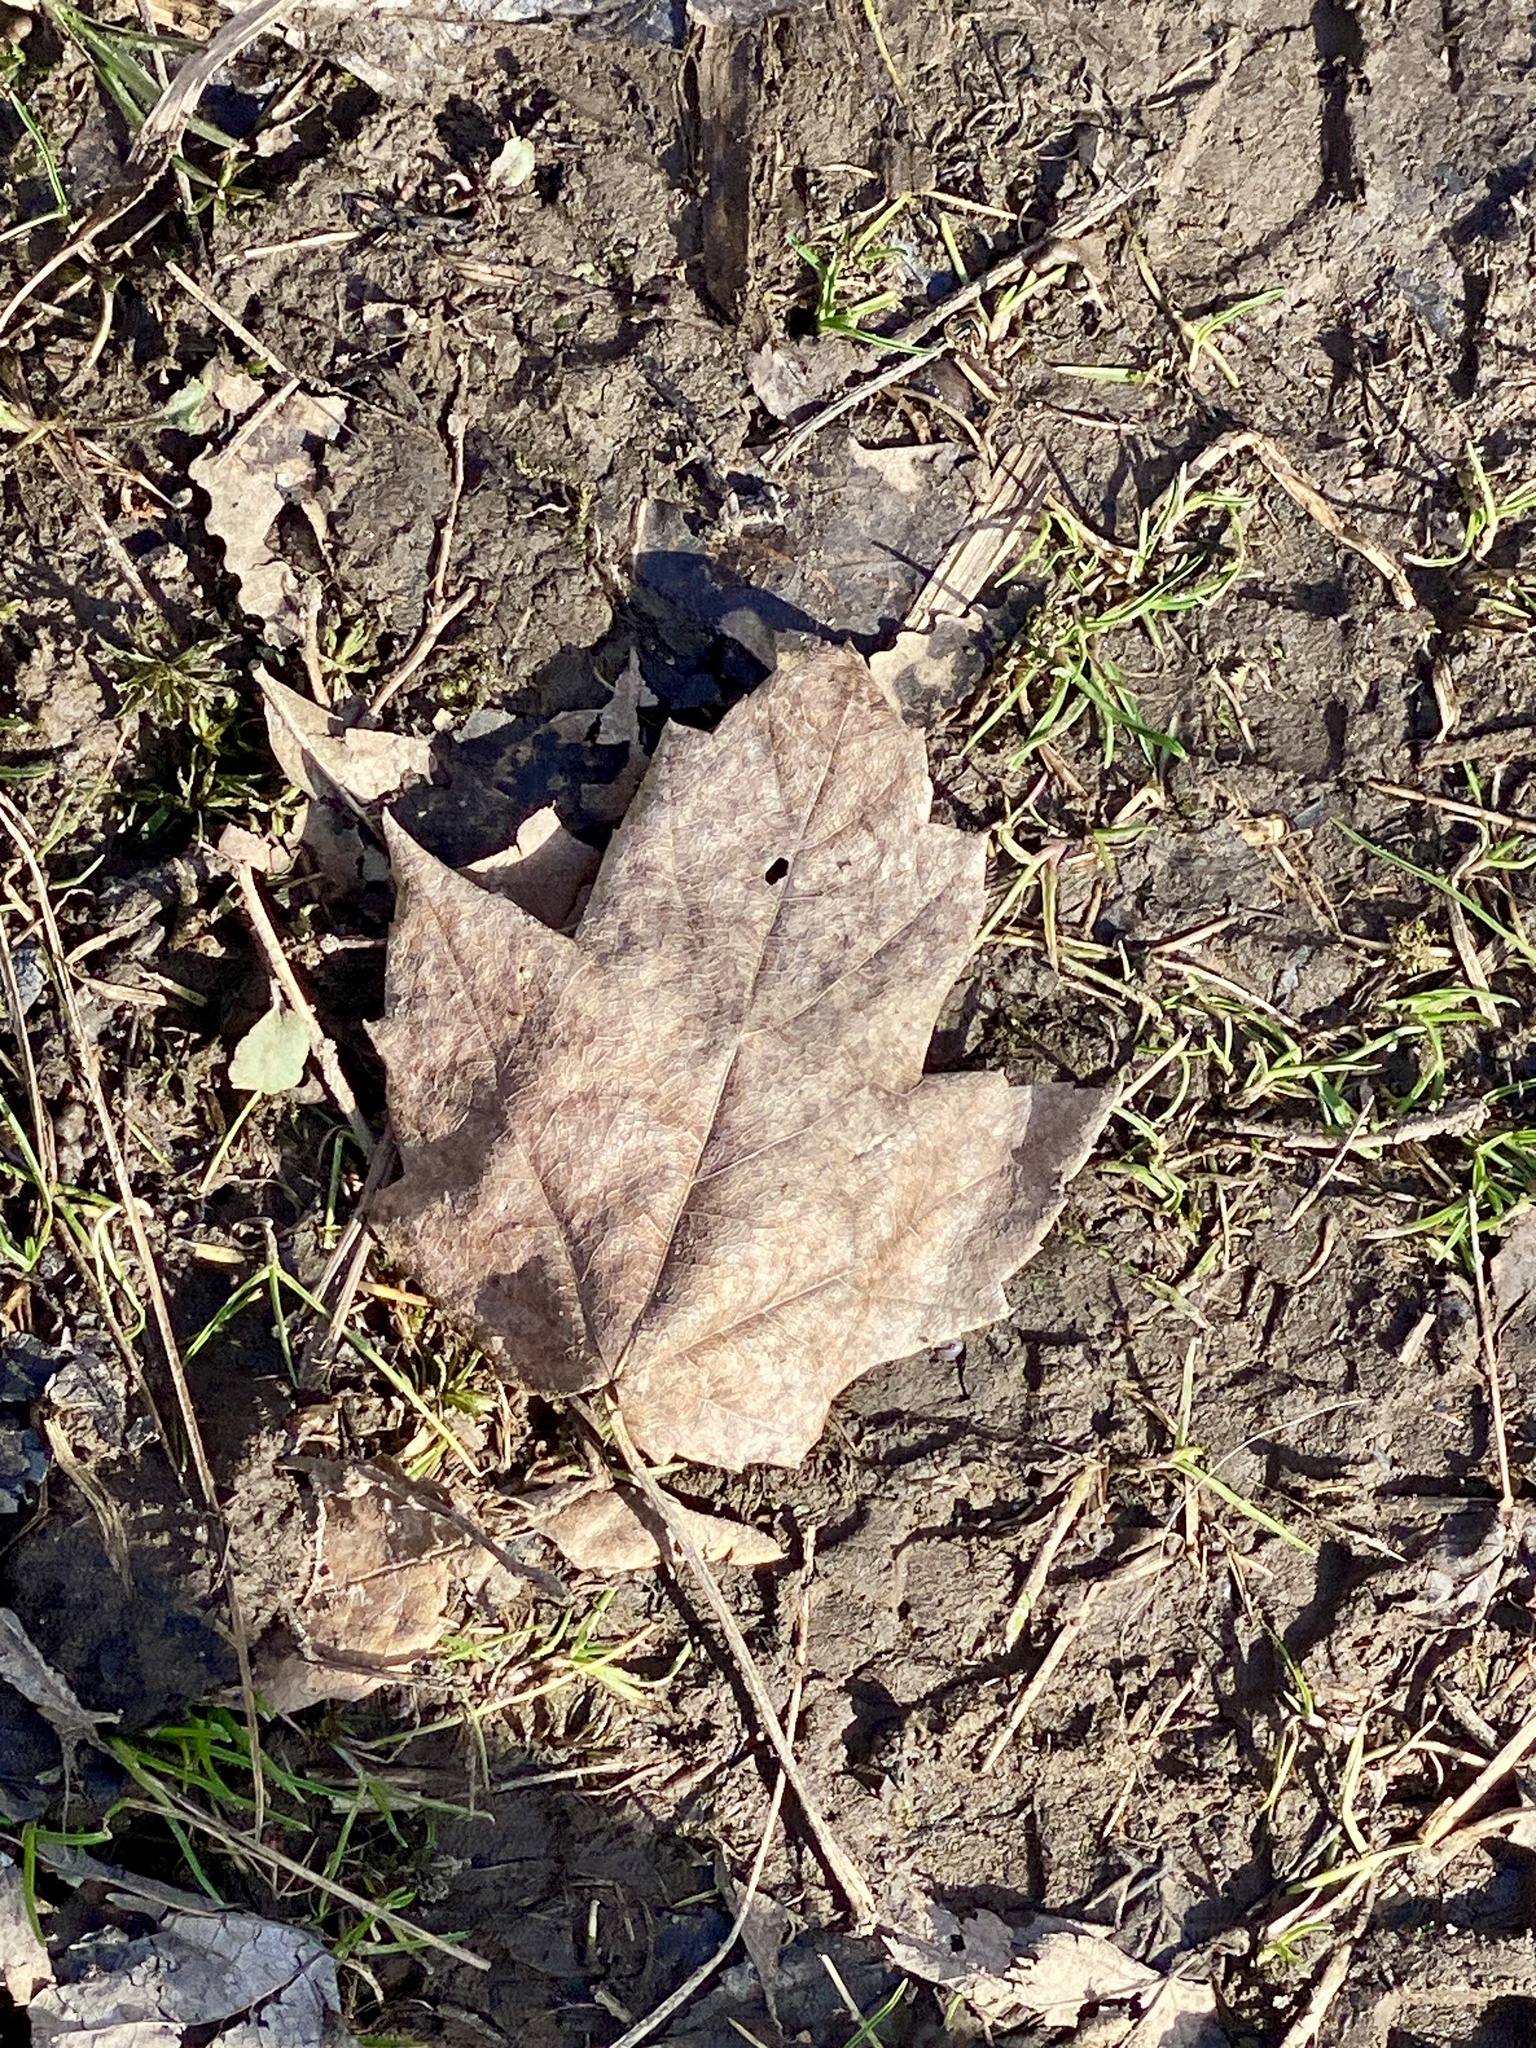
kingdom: Plantae
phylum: Tracheophyta
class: Magnoliopsida
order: Sapindales
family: Sapindaceae
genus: Acer
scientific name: Acer rubrum
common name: Red maple
